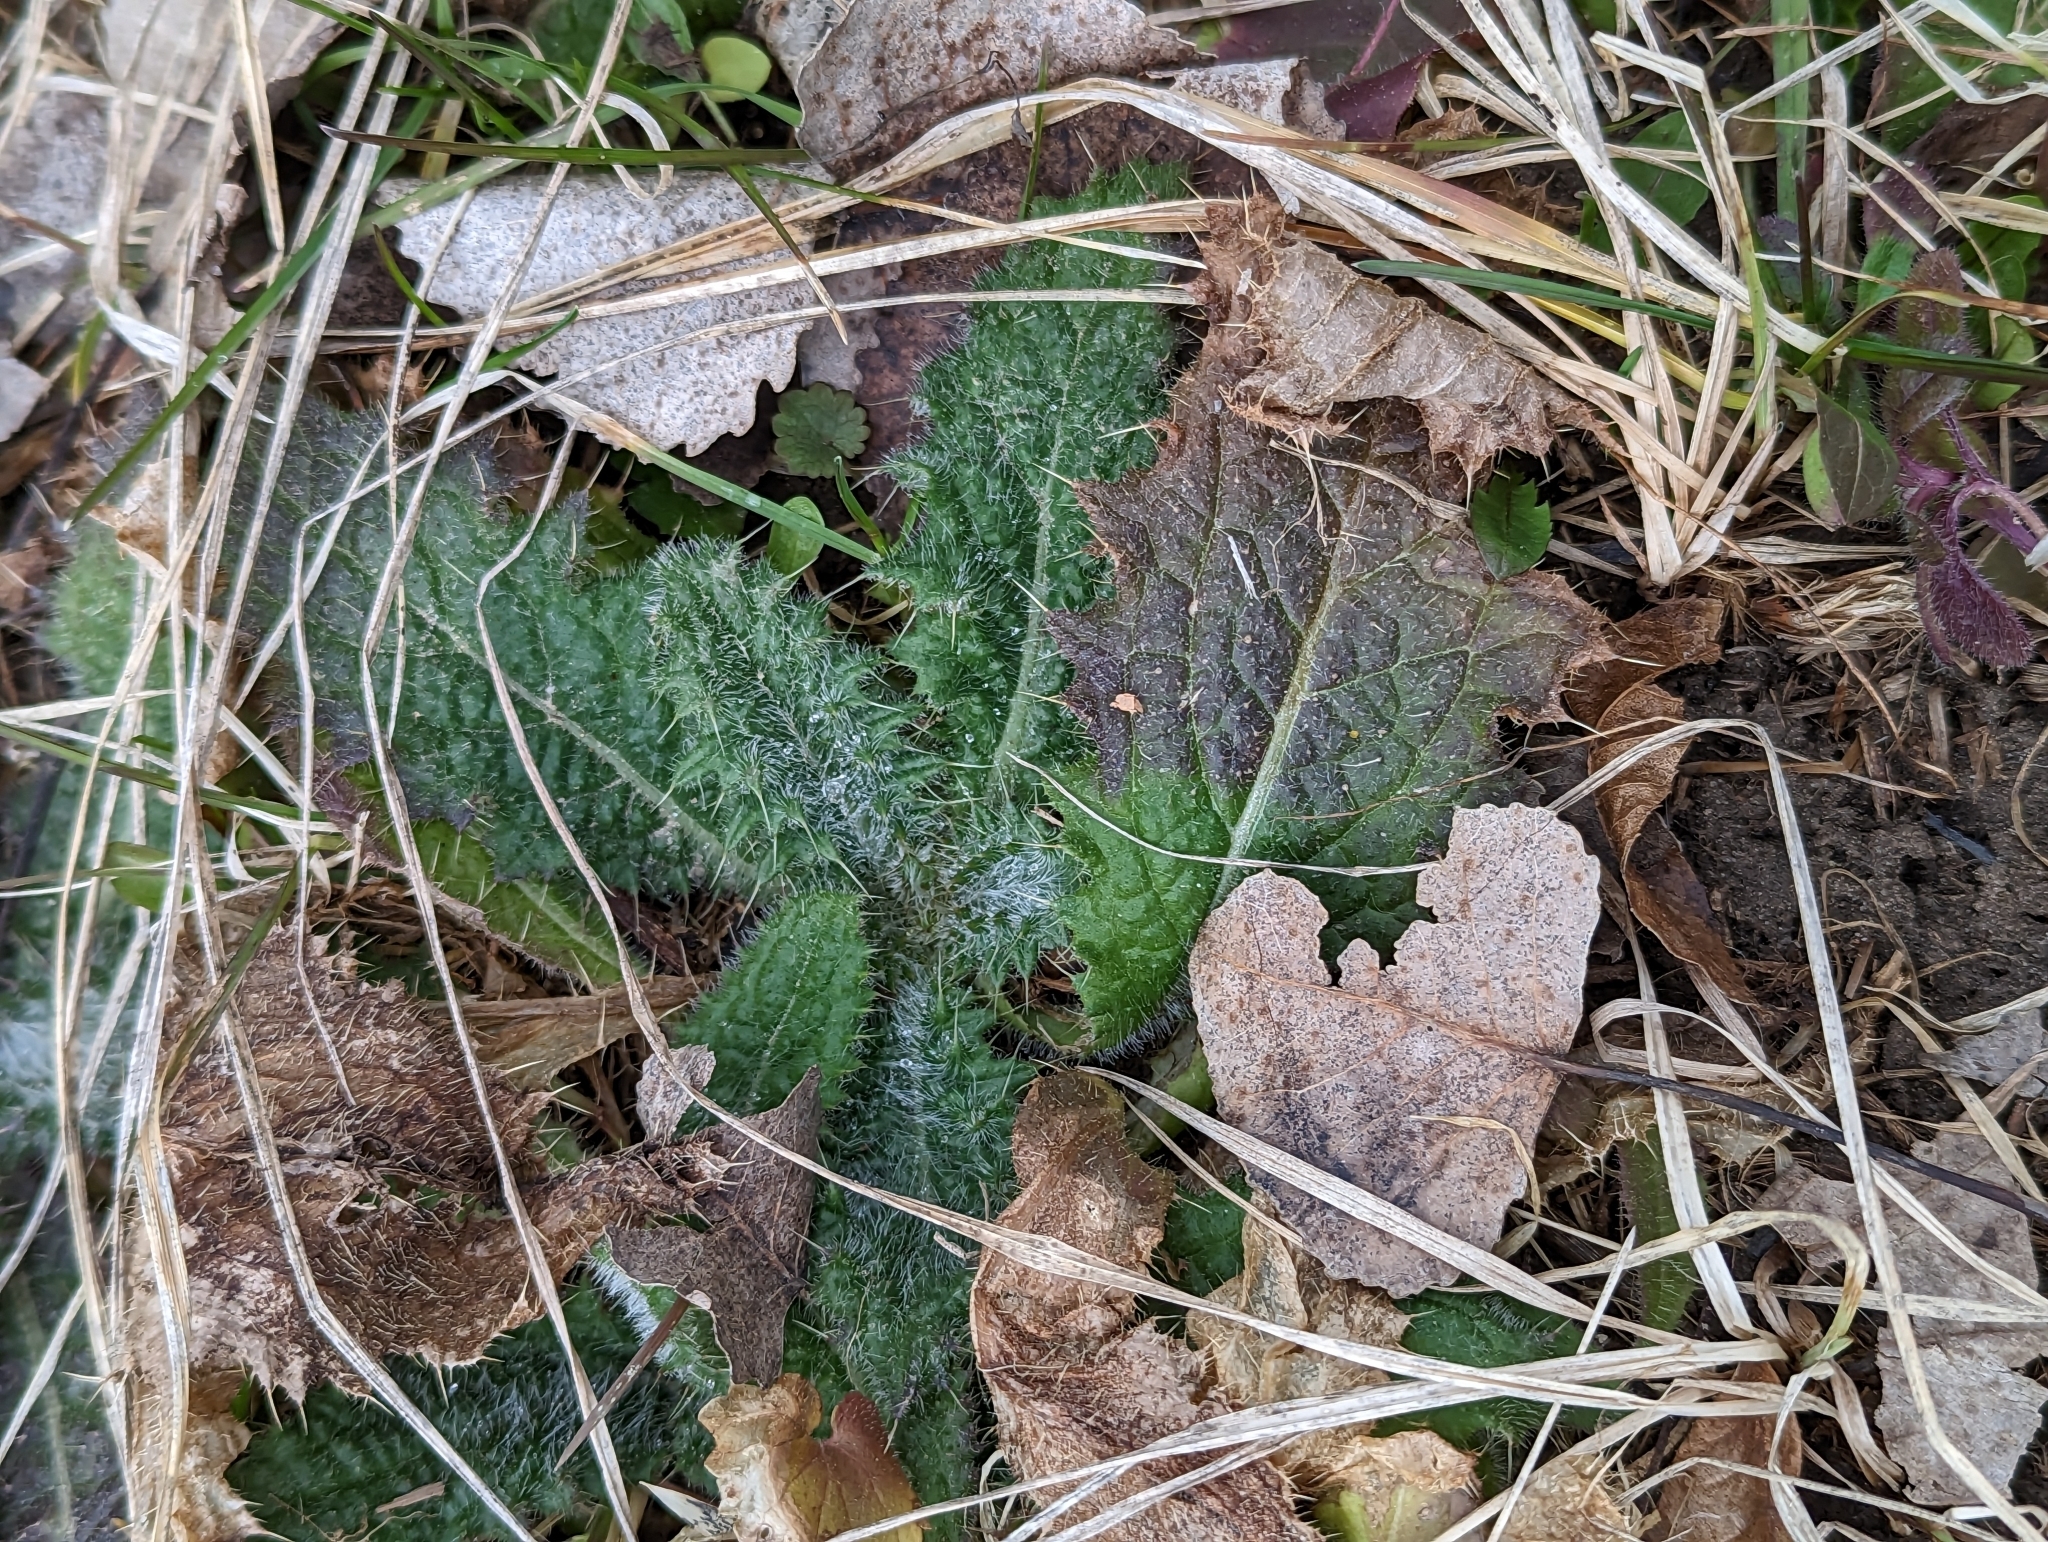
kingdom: Plantae
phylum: Tracheophyta
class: Magnoliopsida
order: Asterales
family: Asteraceae
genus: Cirsium
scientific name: Cirsium vulgare
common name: Bull thistle
